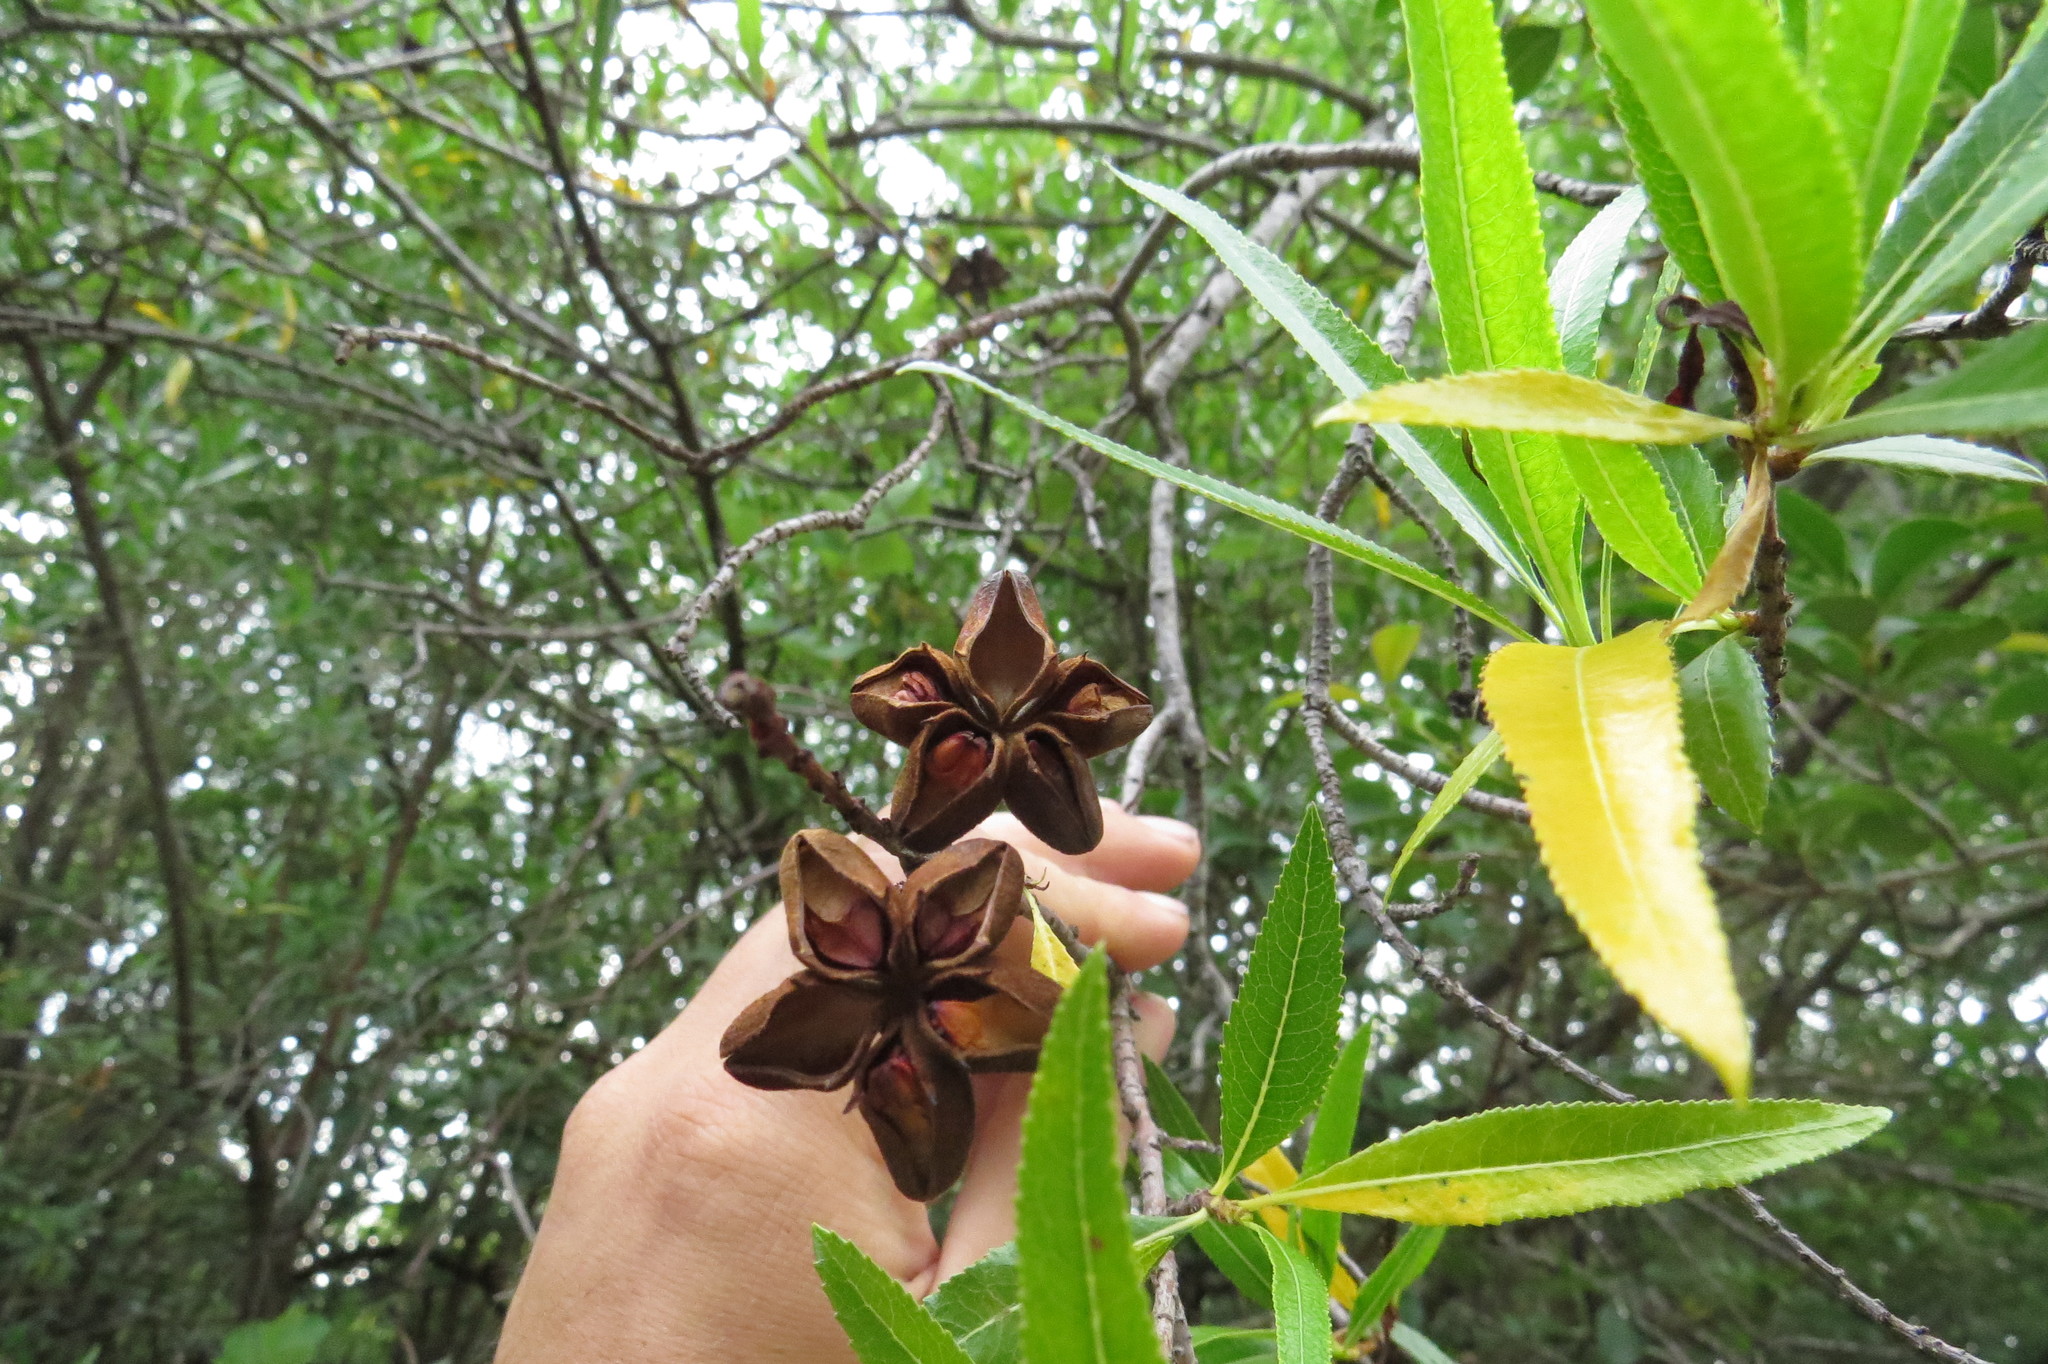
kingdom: Plantae
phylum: Tracheophyta
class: Magnoliopsida
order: Rosales
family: Rosaceae
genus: Kageneckia
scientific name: Kageneckia lanceolata
